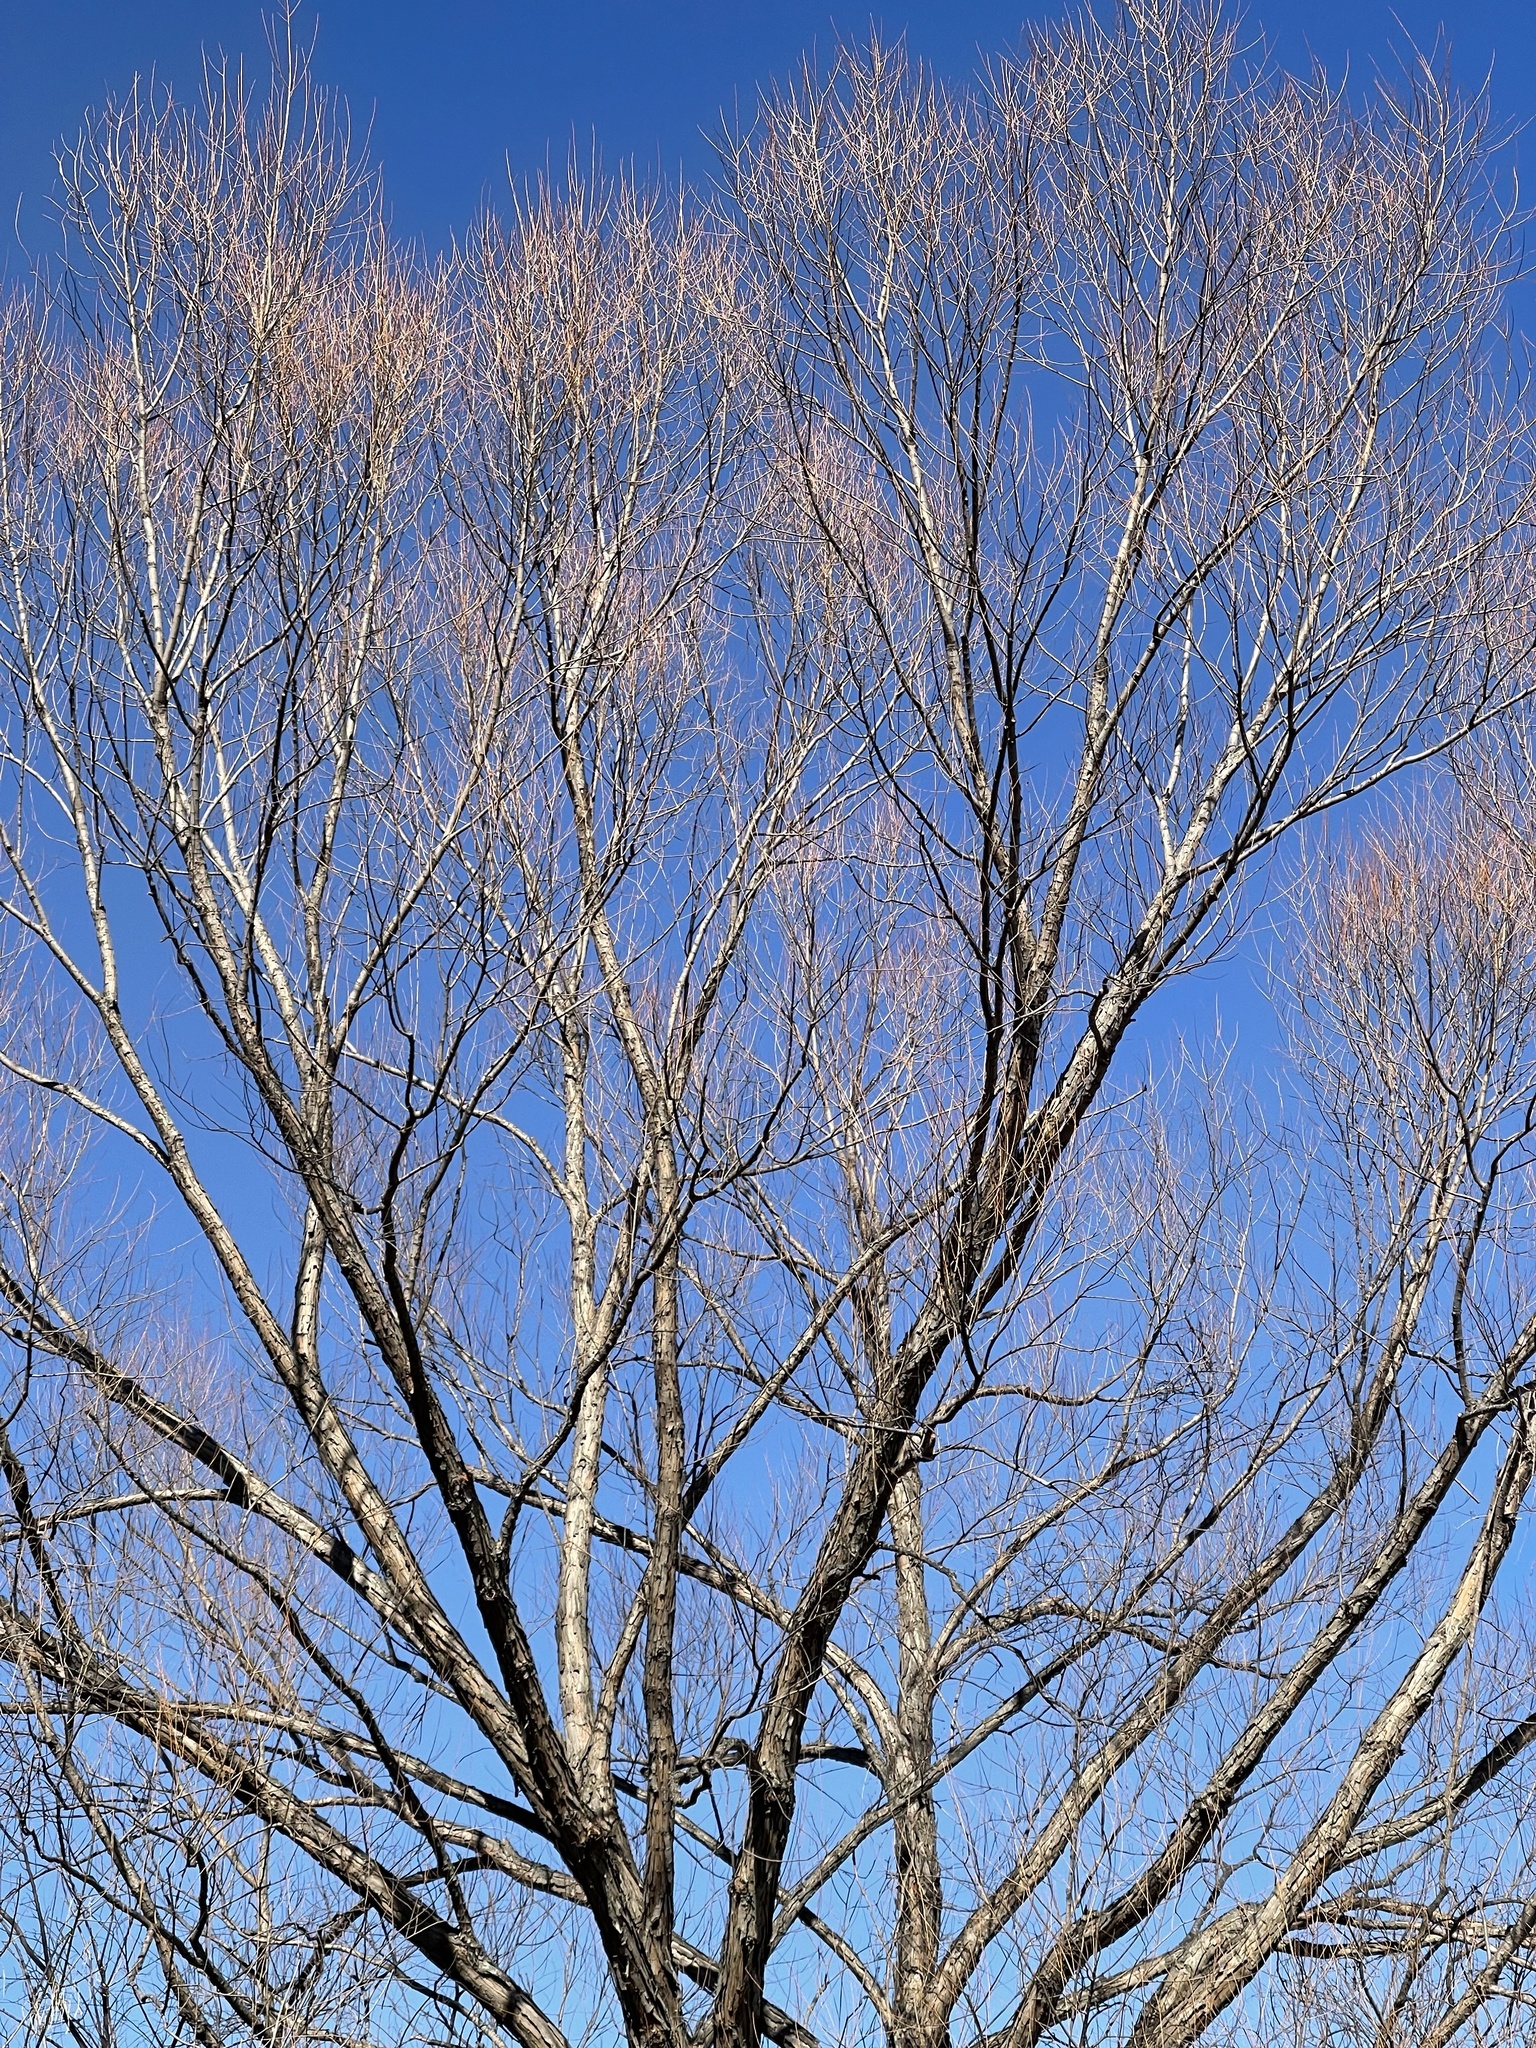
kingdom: Plantae
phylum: Tracheophyta
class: Magnoliopsida
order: Malpighiales
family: Salicaceae
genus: Salix
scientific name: Salix nigra
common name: Black willow
